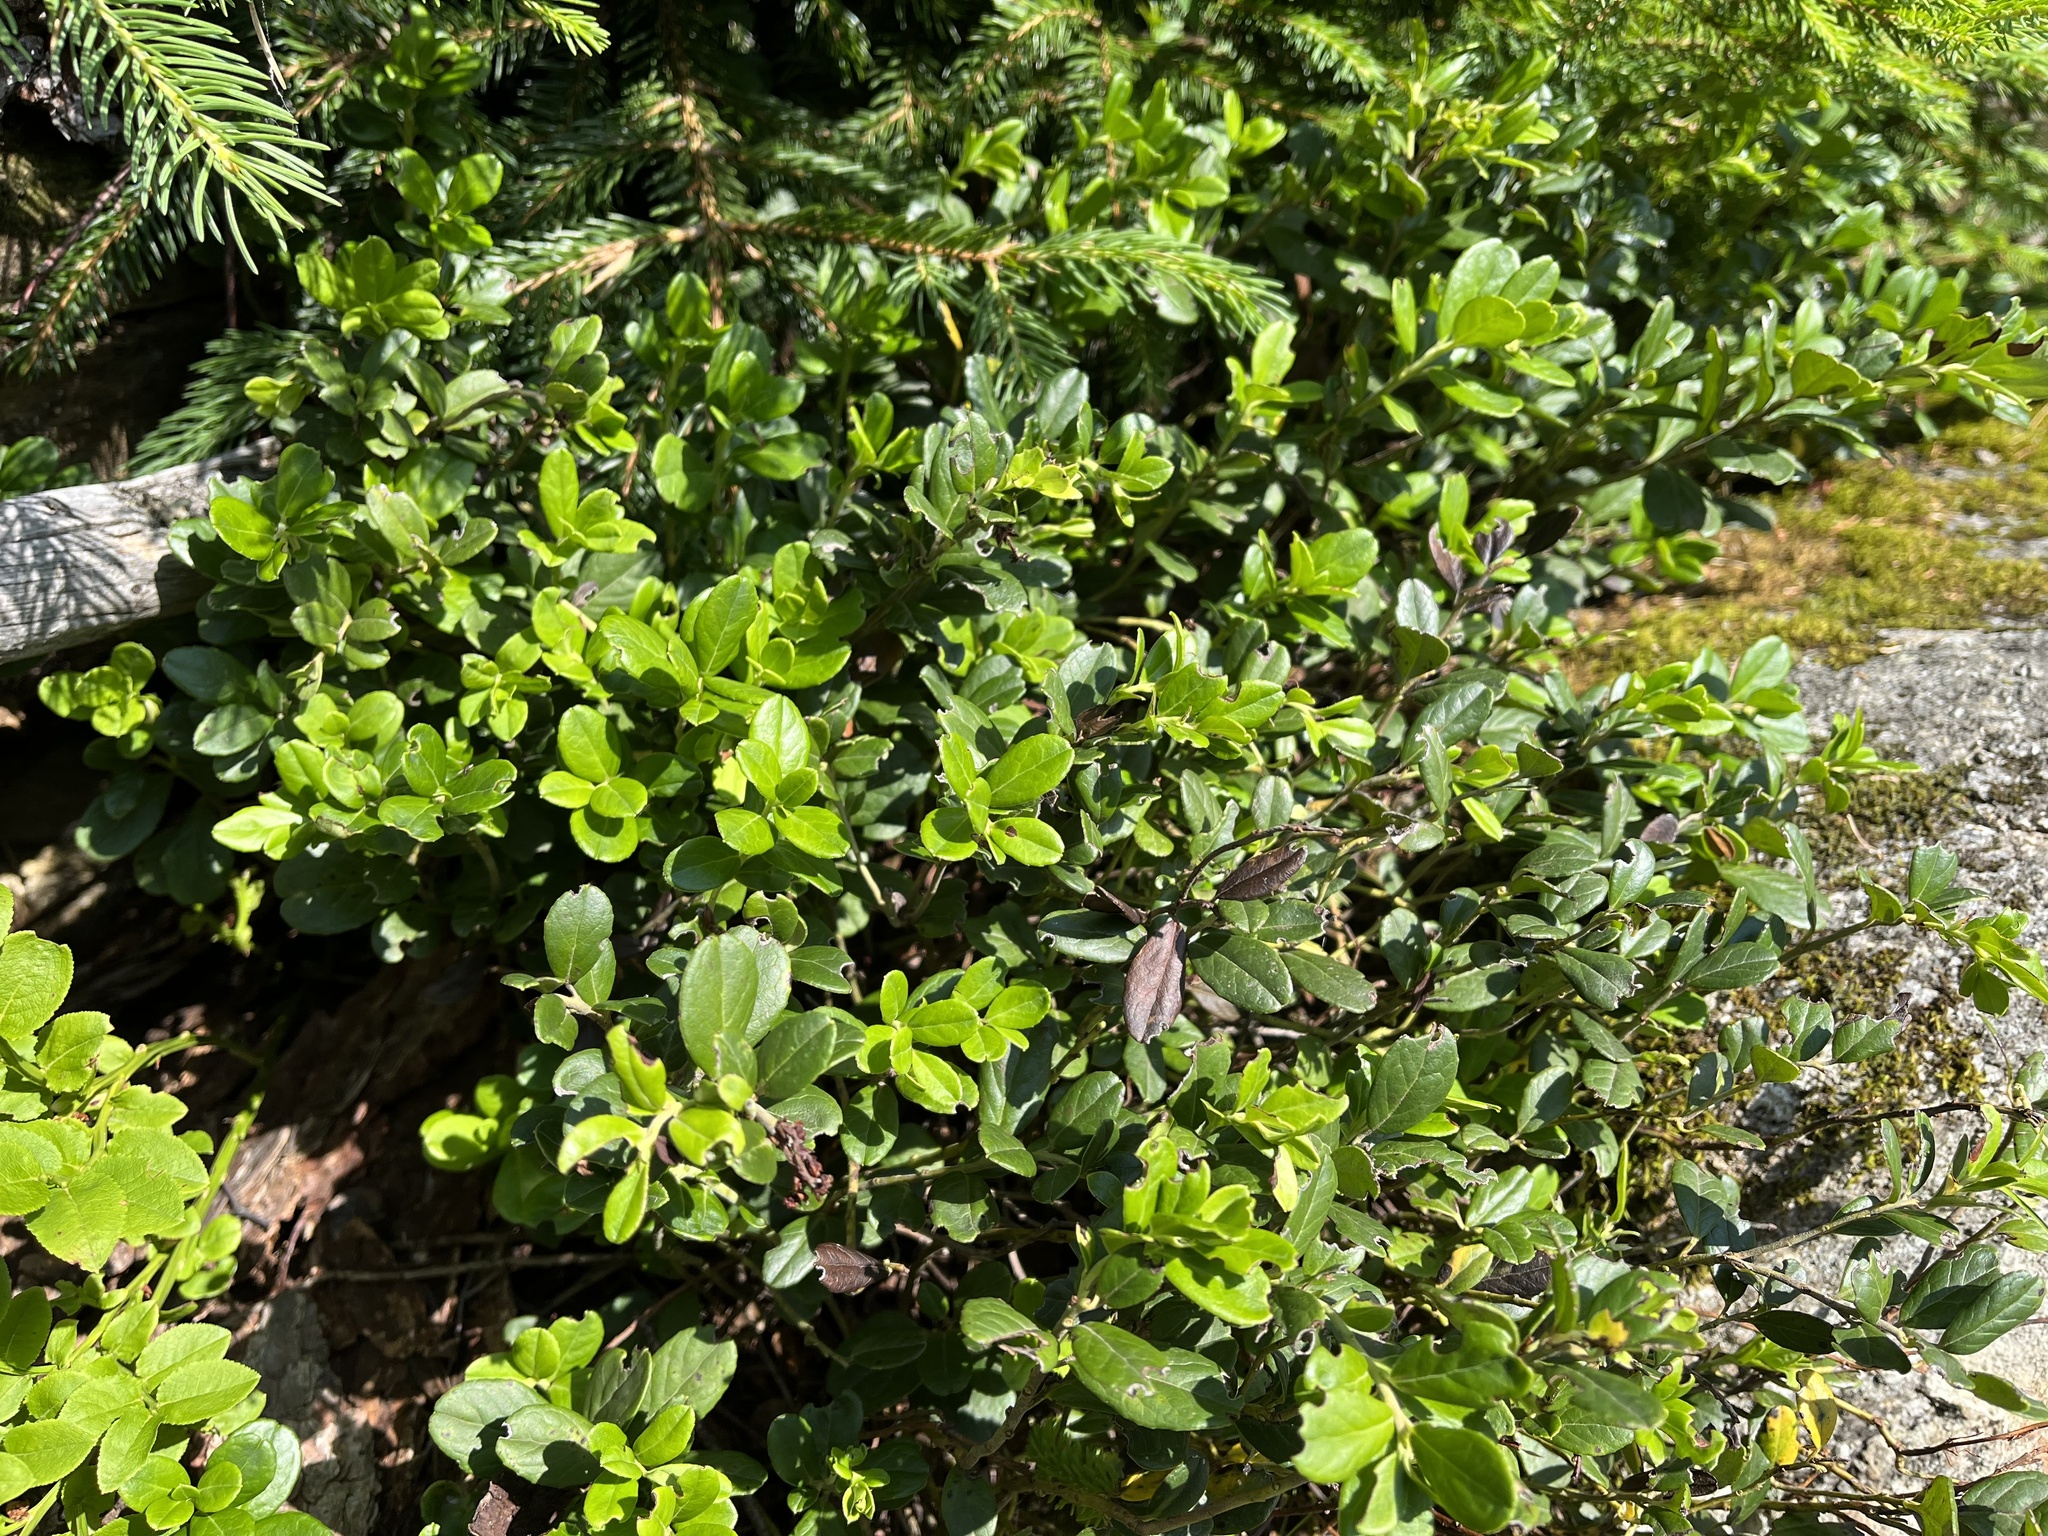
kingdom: Plantae
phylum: Tracheophyta
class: Magnoliopsida
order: Ericales
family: Ericaceae
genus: Vaccinium
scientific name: Vaccinium vitis-idaea
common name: Cowberry
